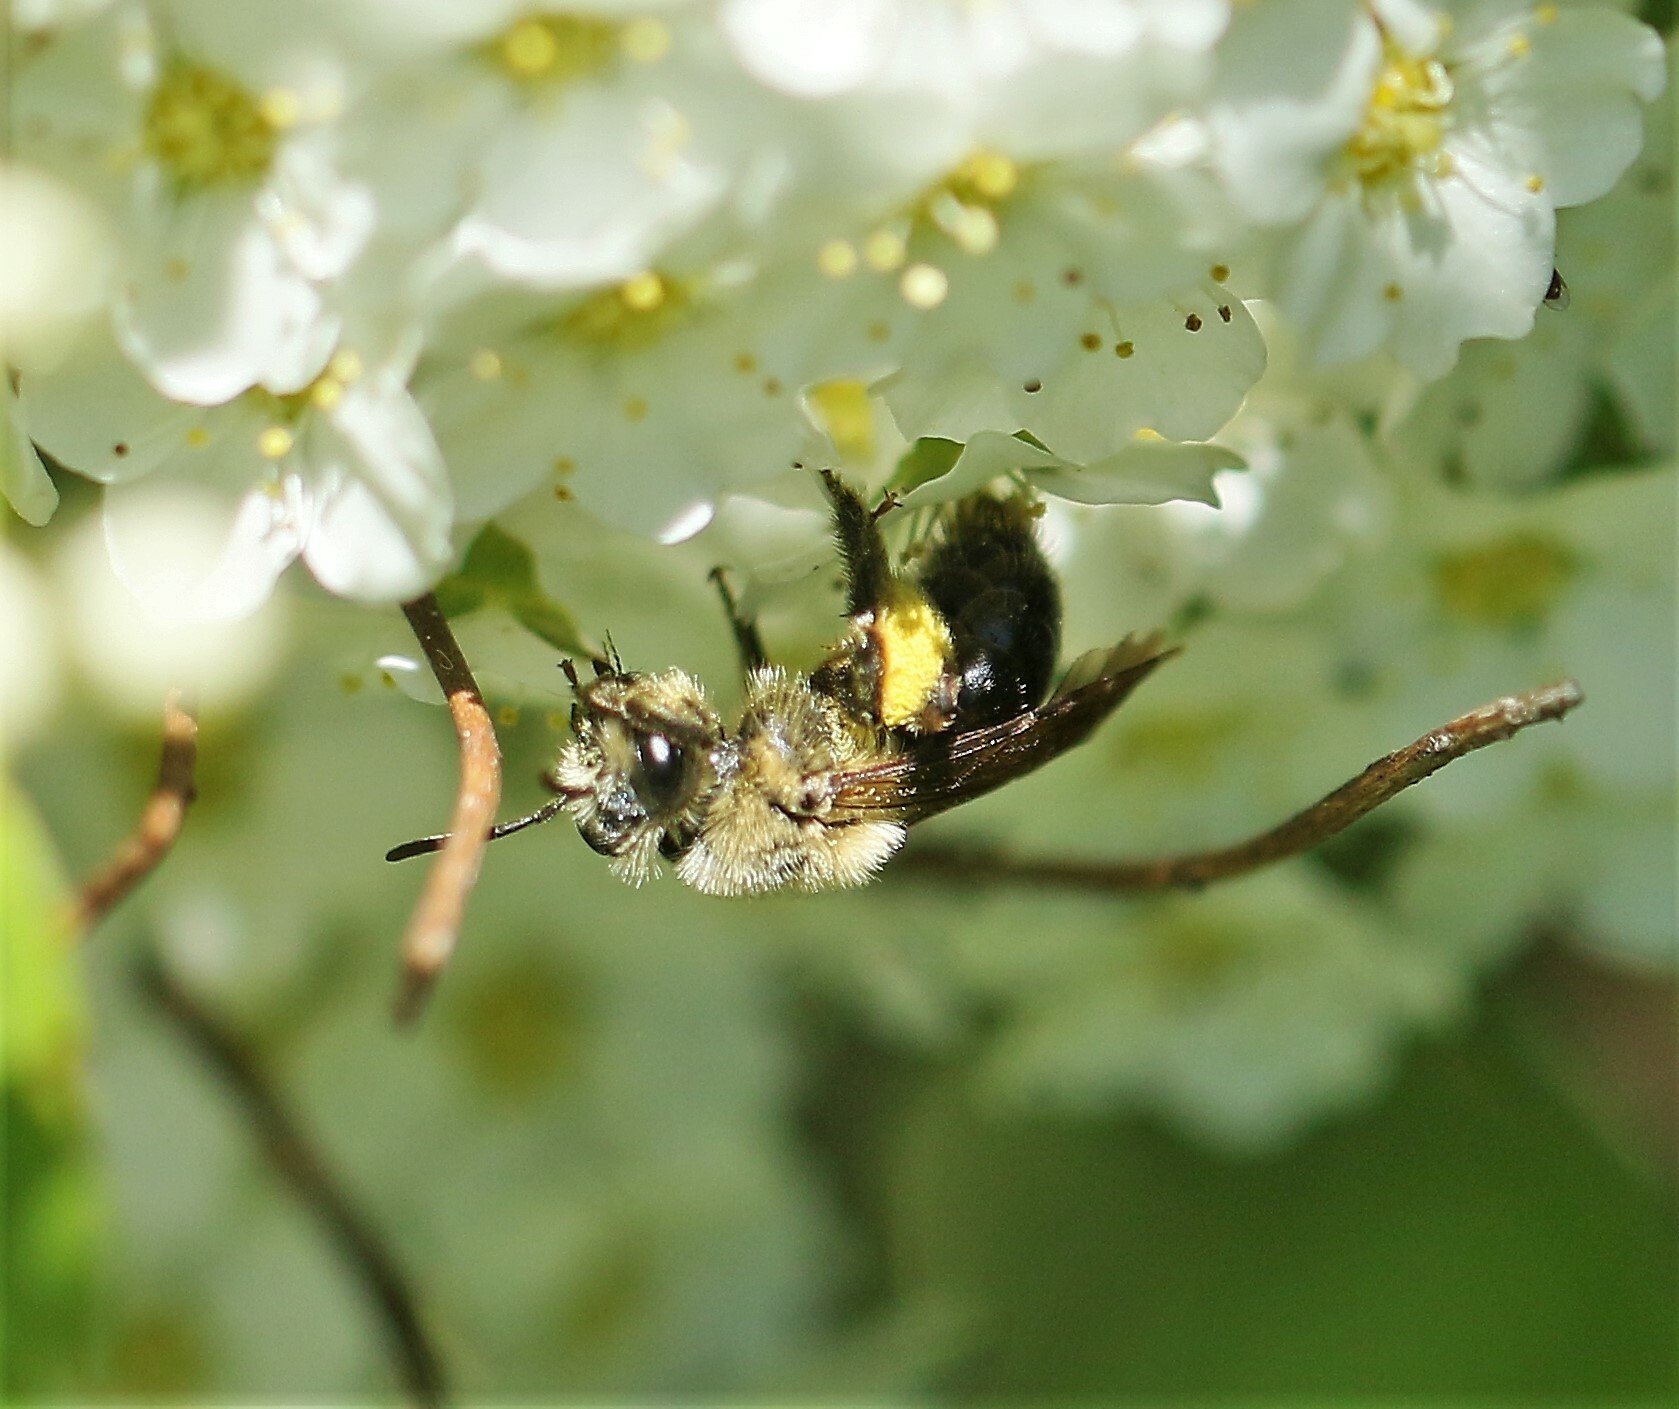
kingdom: Animalia
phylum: Arthropoda
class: Insecta
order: Hymenoptera
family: Andrenidae
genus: Andrena
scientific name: Andrena vicina
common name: Neighborly mining bee
